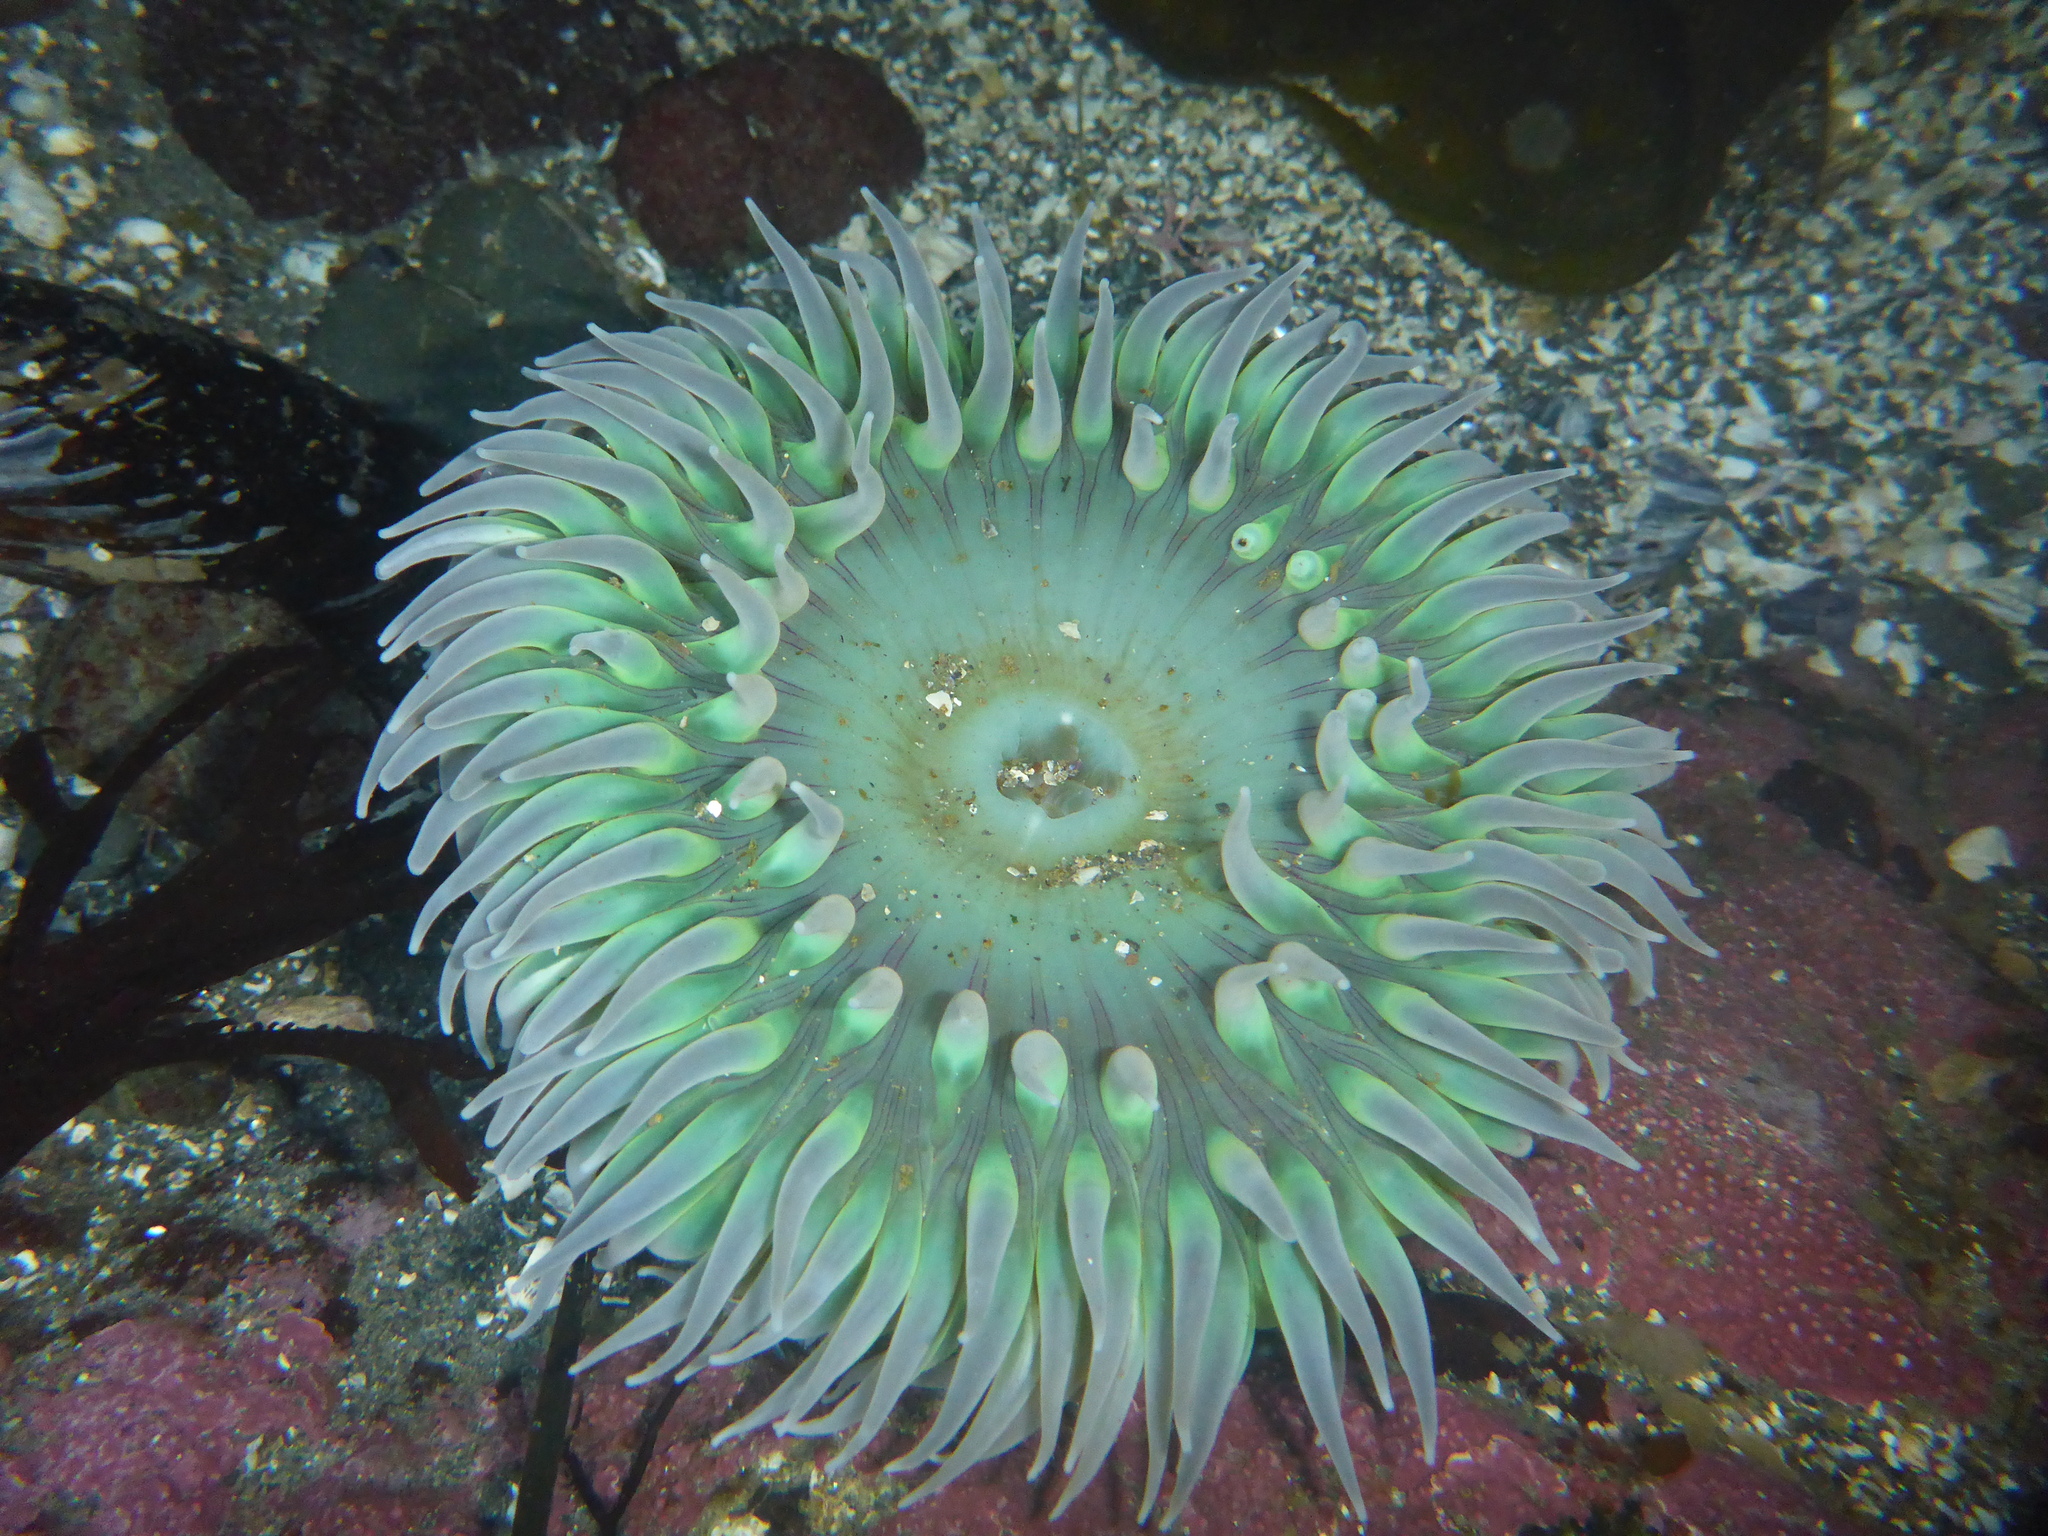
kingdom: Animalia
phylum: Cnidaria
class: Anthozoa
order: Actiniaria
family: Actiniidae
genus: Anthopleura
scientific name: Anthopleura xanthogrammica
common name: Giant green anemone
